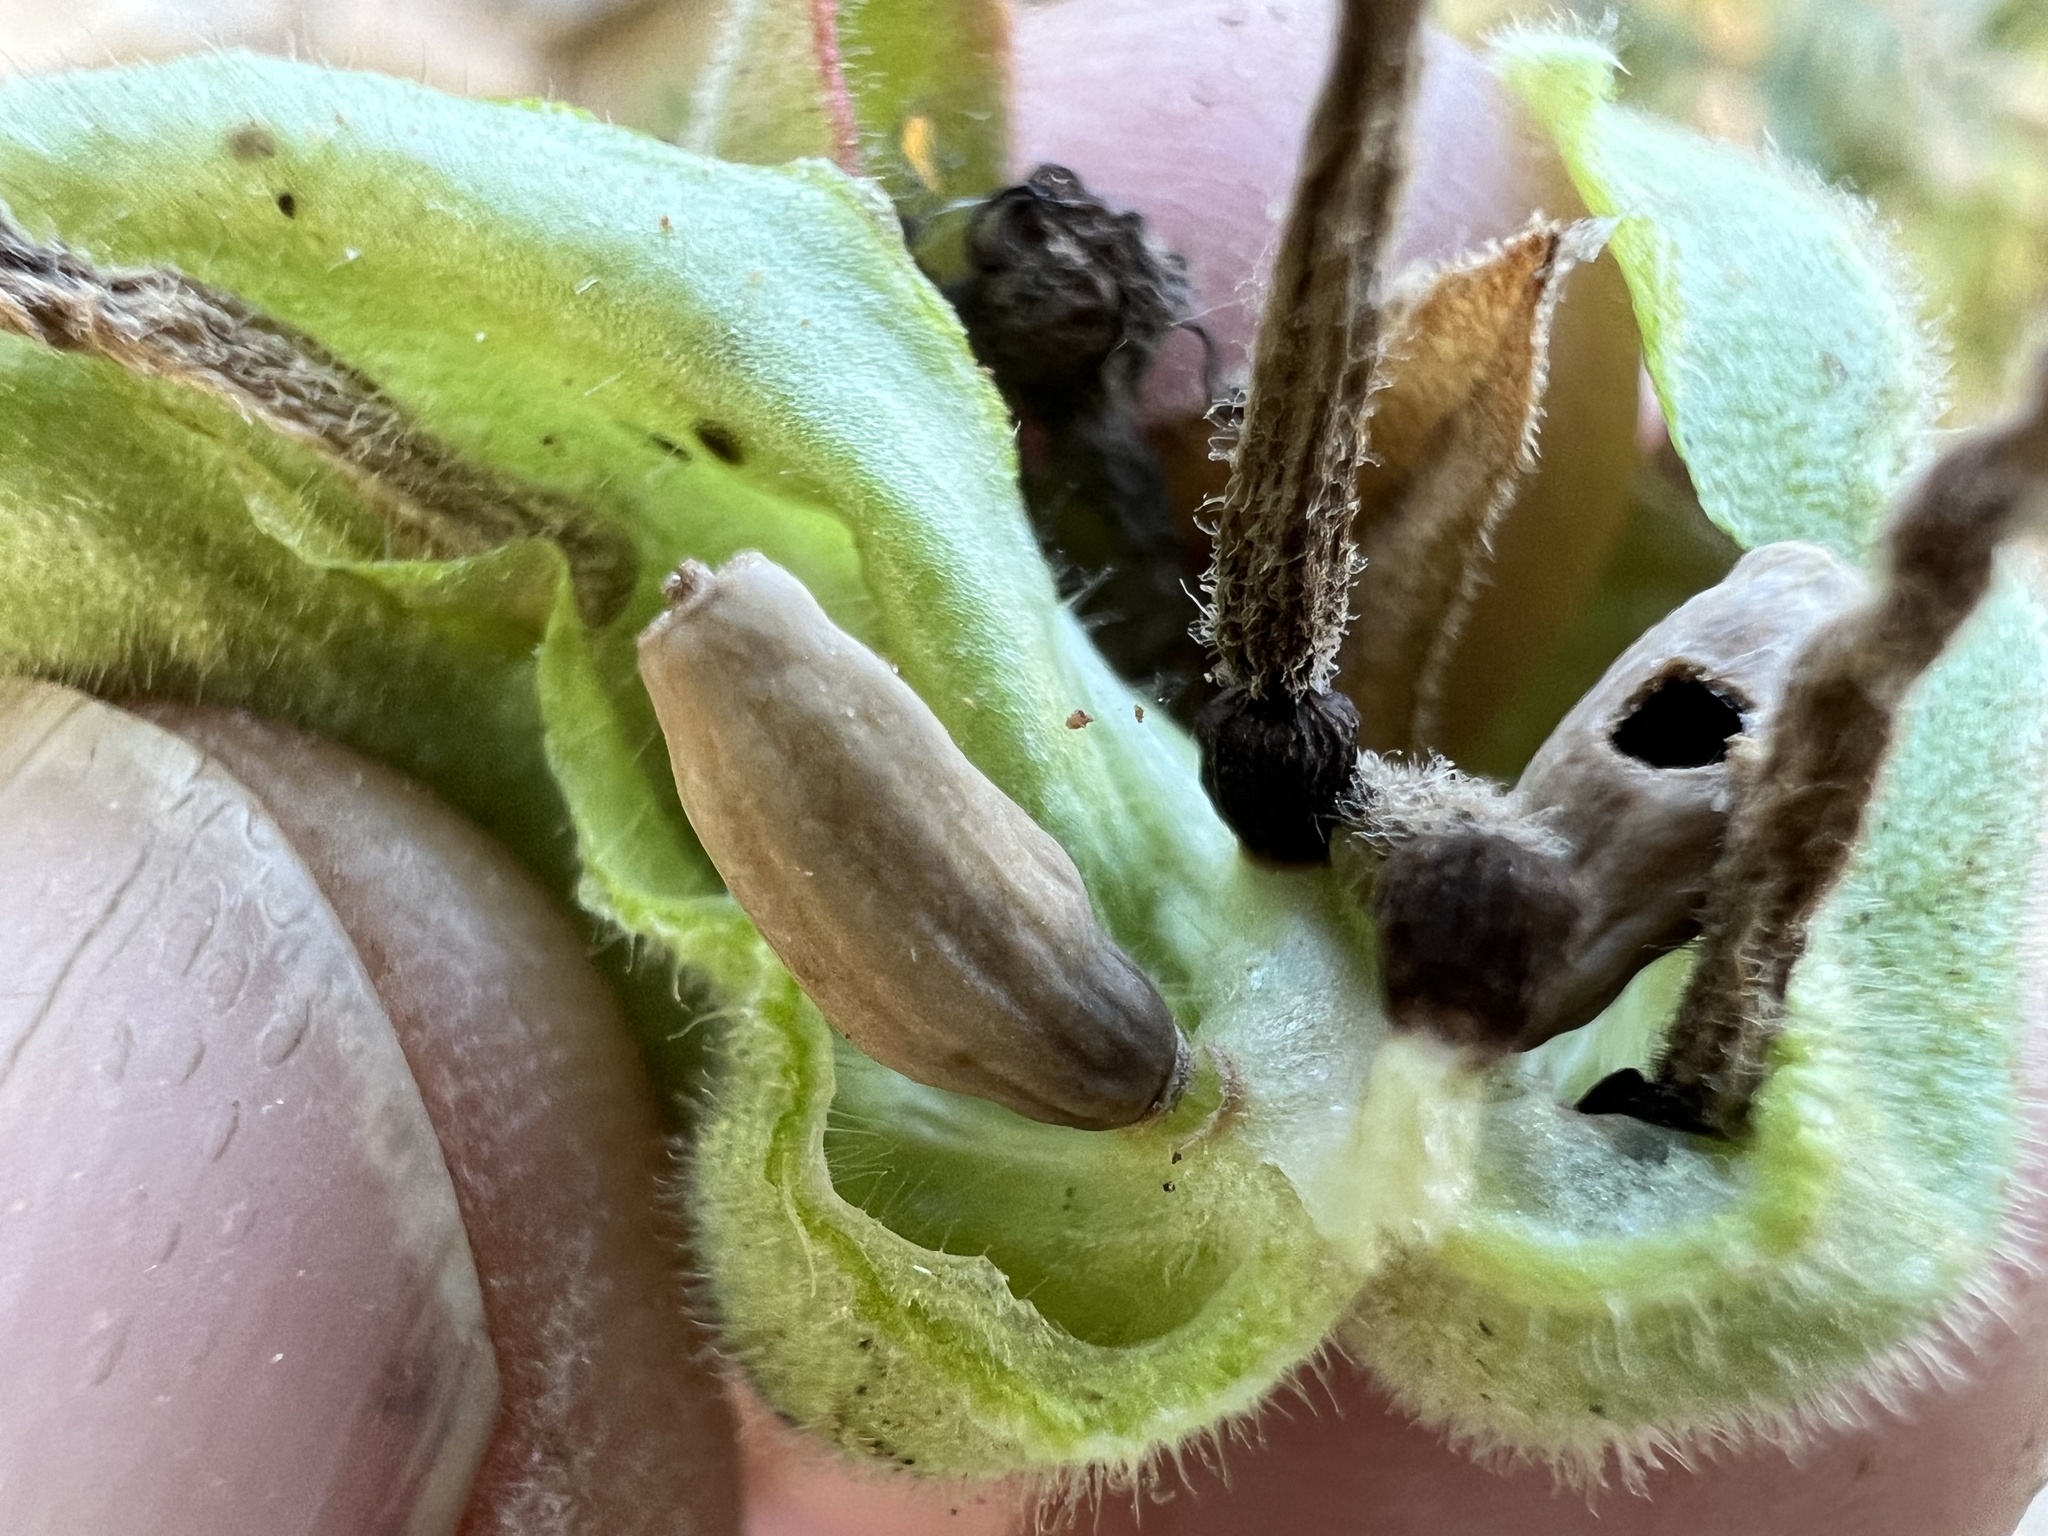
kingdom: Plantae
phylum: Tracheophyta
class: Magnoliopsida
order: Caryophyllales
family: Nyctaginaceae
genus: Mirabilis
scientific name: Mirabilis multiflora
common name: Froebel's four-o'clock
